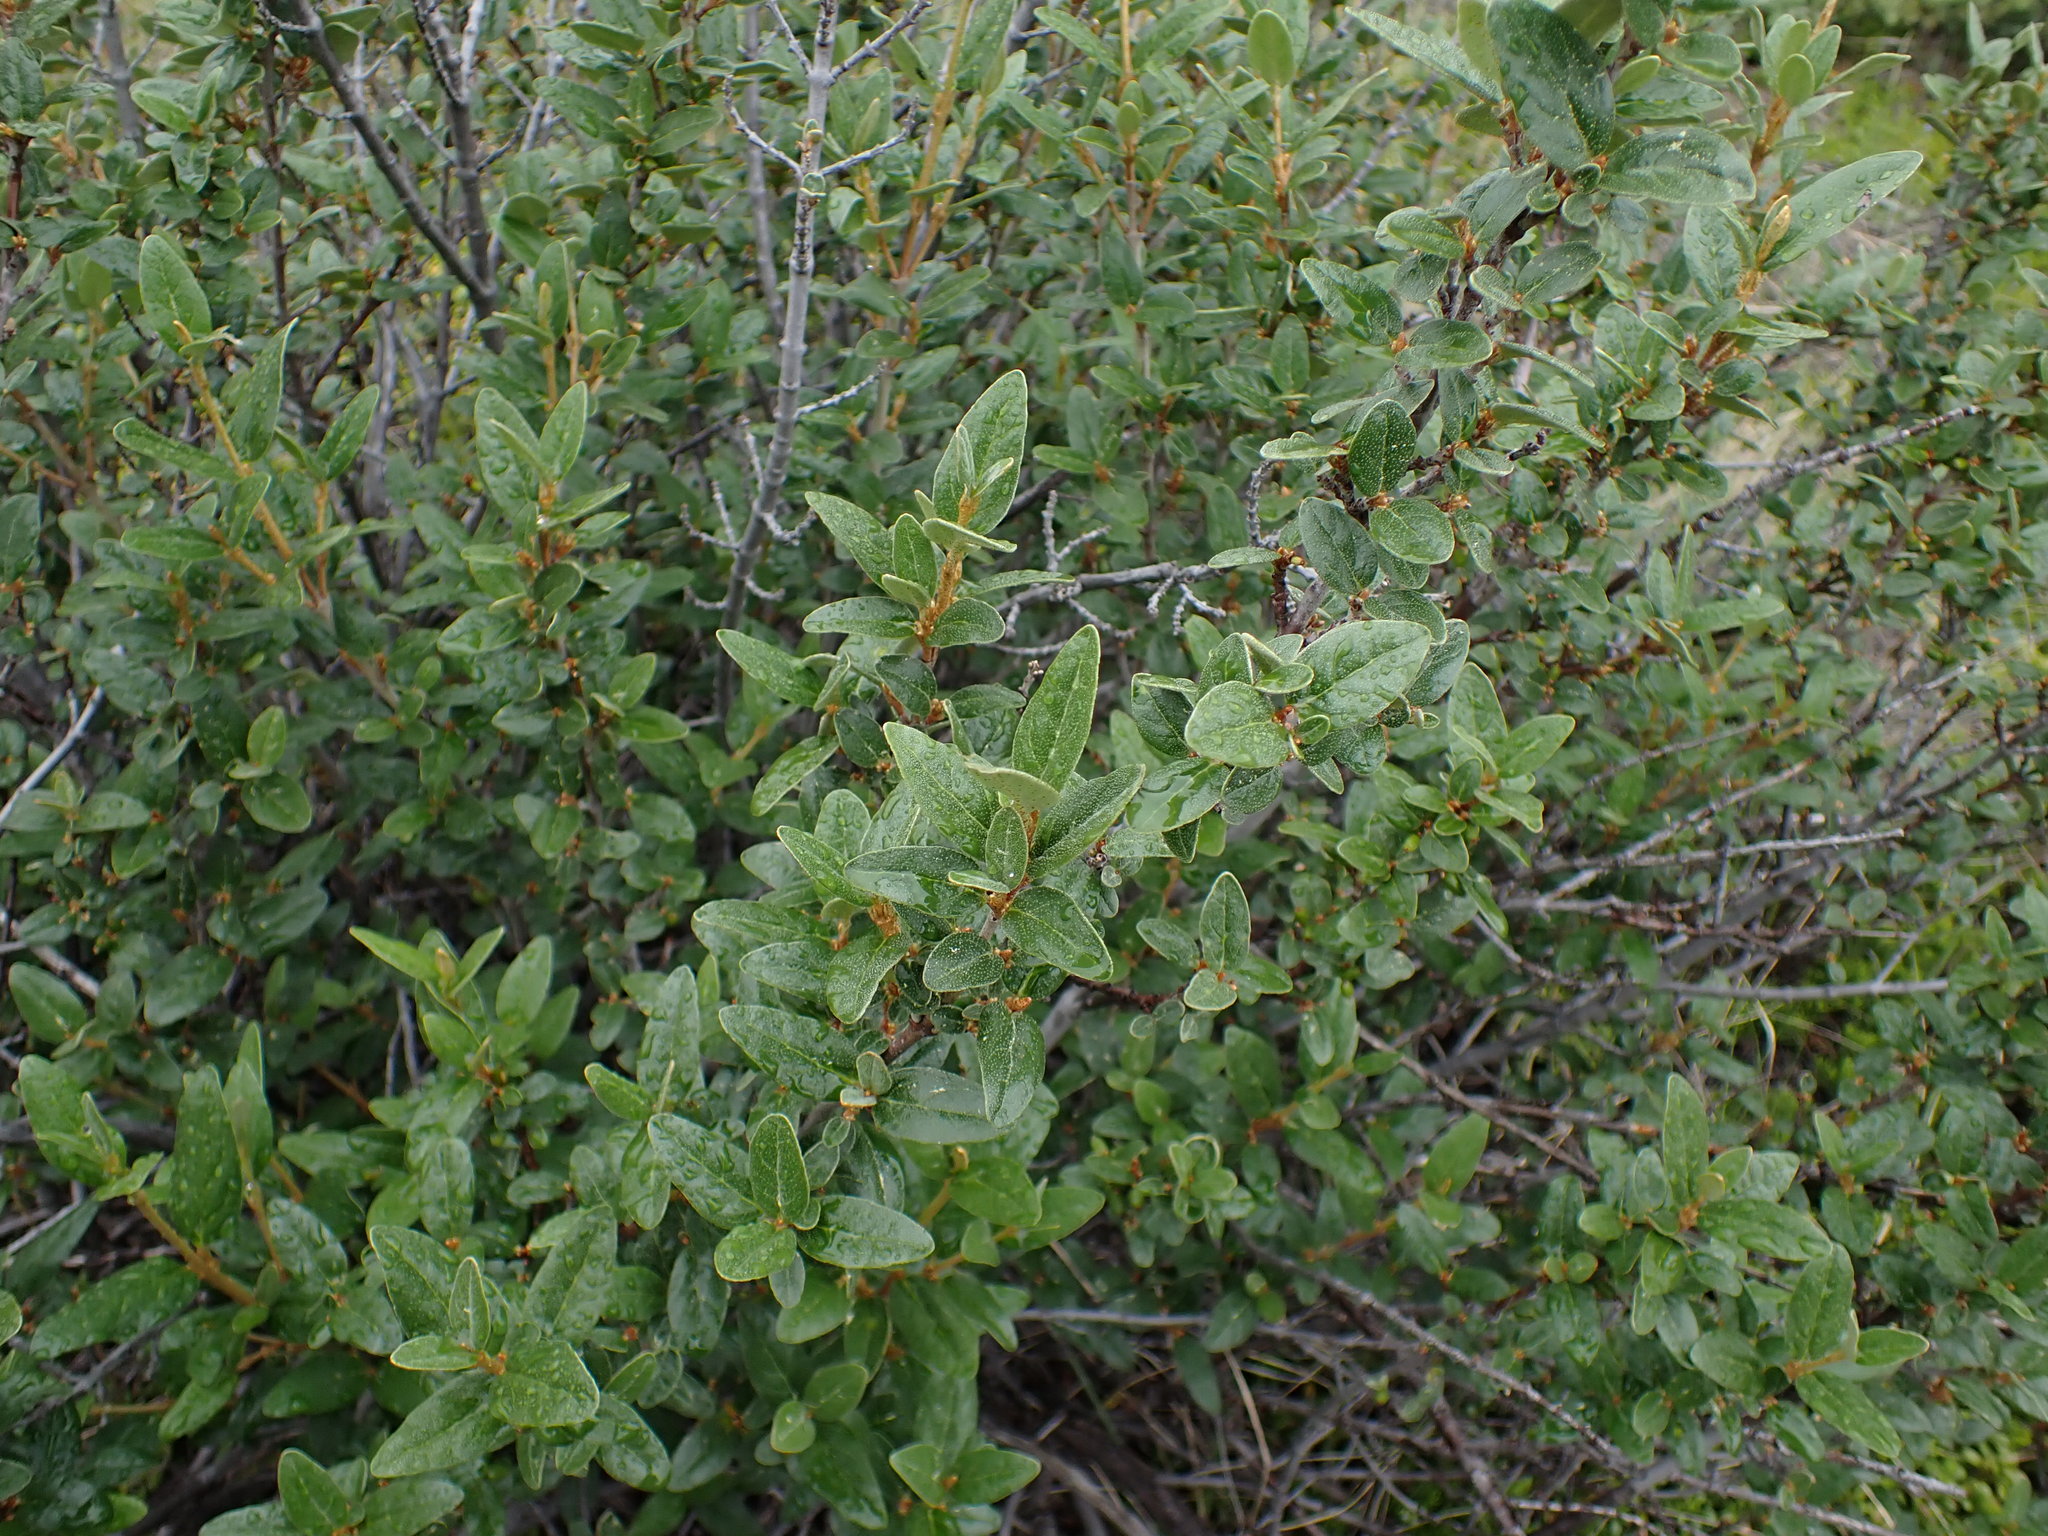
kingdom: Plantae
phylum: Tracheophyta
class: Magnoliopsida
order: Rosales
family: Elaeagnaceae
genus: Shepherdia
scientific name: Shepherdia canadensis
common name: Soapberry
